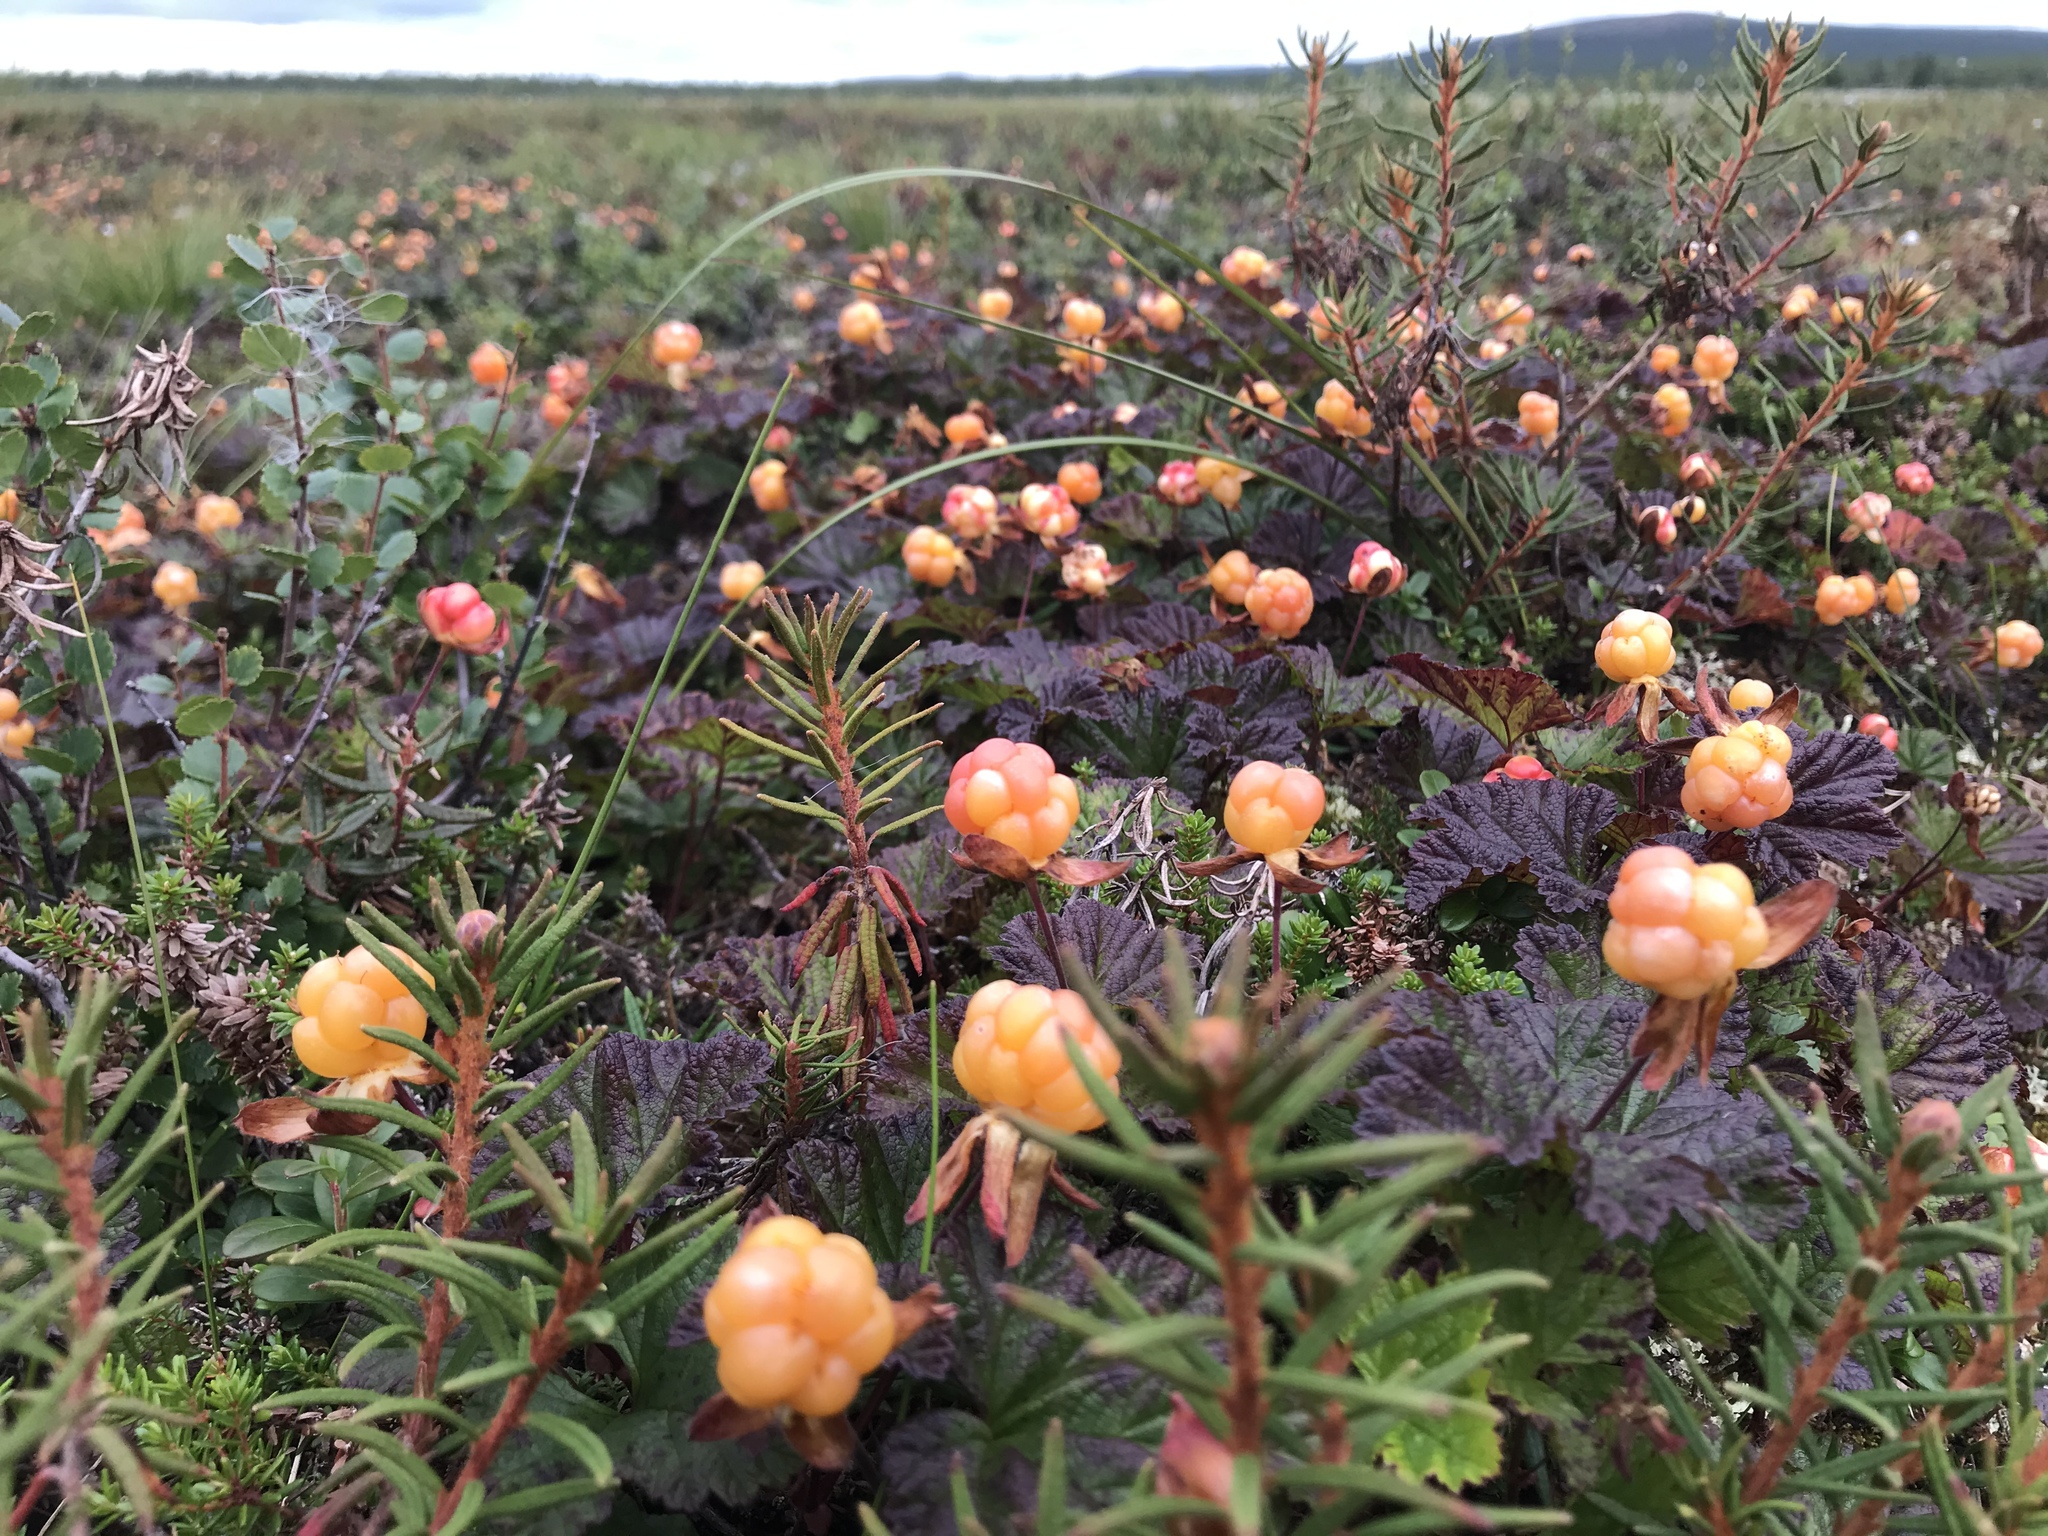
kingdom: Plantae
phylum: Tracheophyta
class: Magnoliopsida
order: Rosales
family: Rosaceae
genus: Rubus
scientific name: Rubus chamaemorus
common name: Cloudberry
